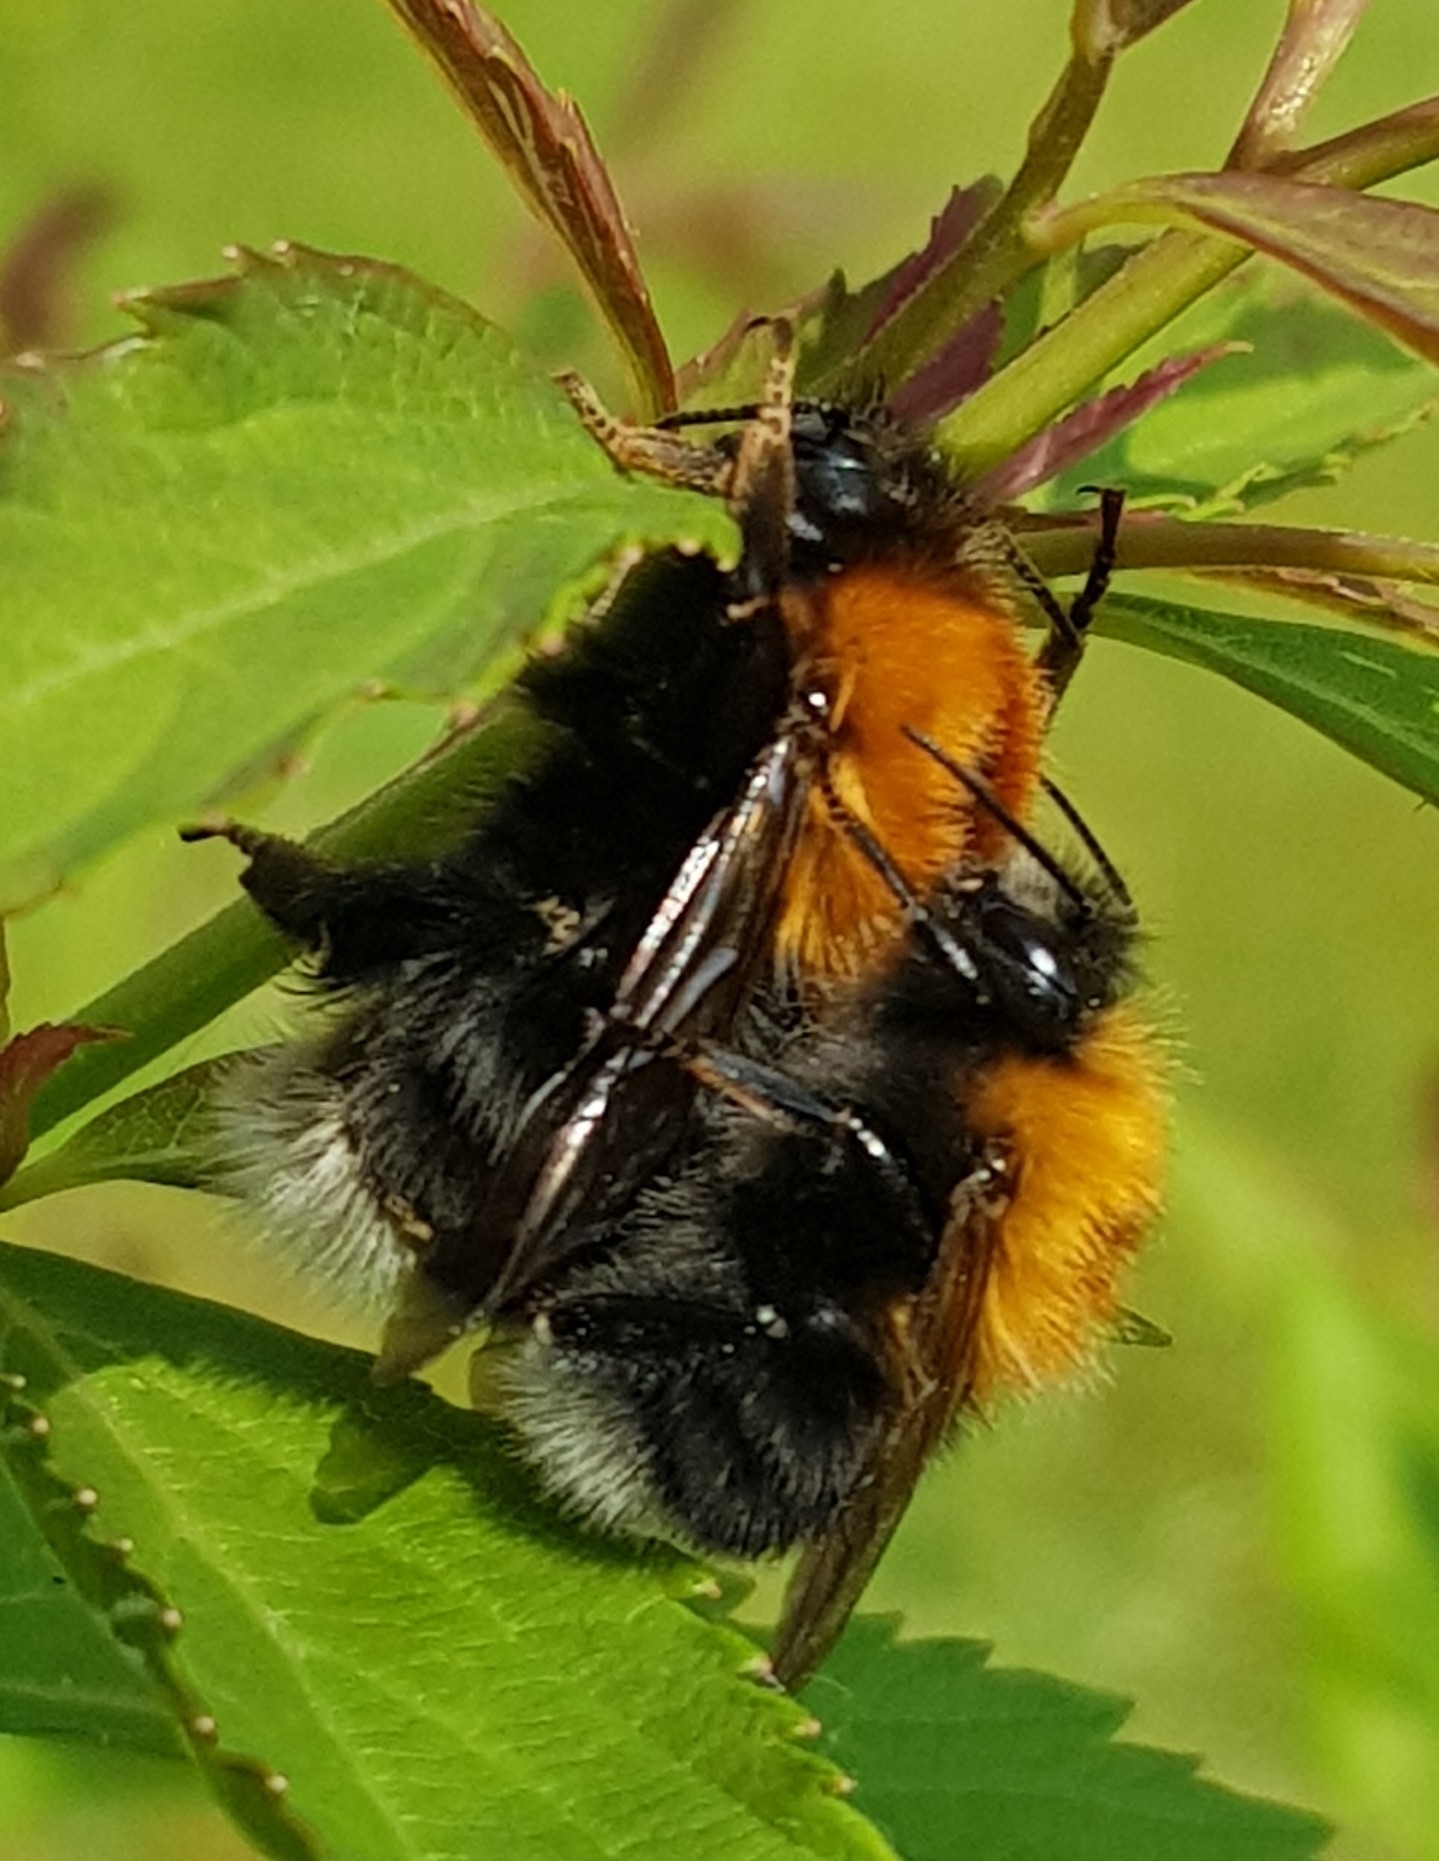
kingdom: Animalia
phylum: Arthropoda
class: Insecta
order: Hymenoptera
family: Apidae
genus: Bombus
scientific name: Bombus hypnorum
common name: New garden bumblebee
